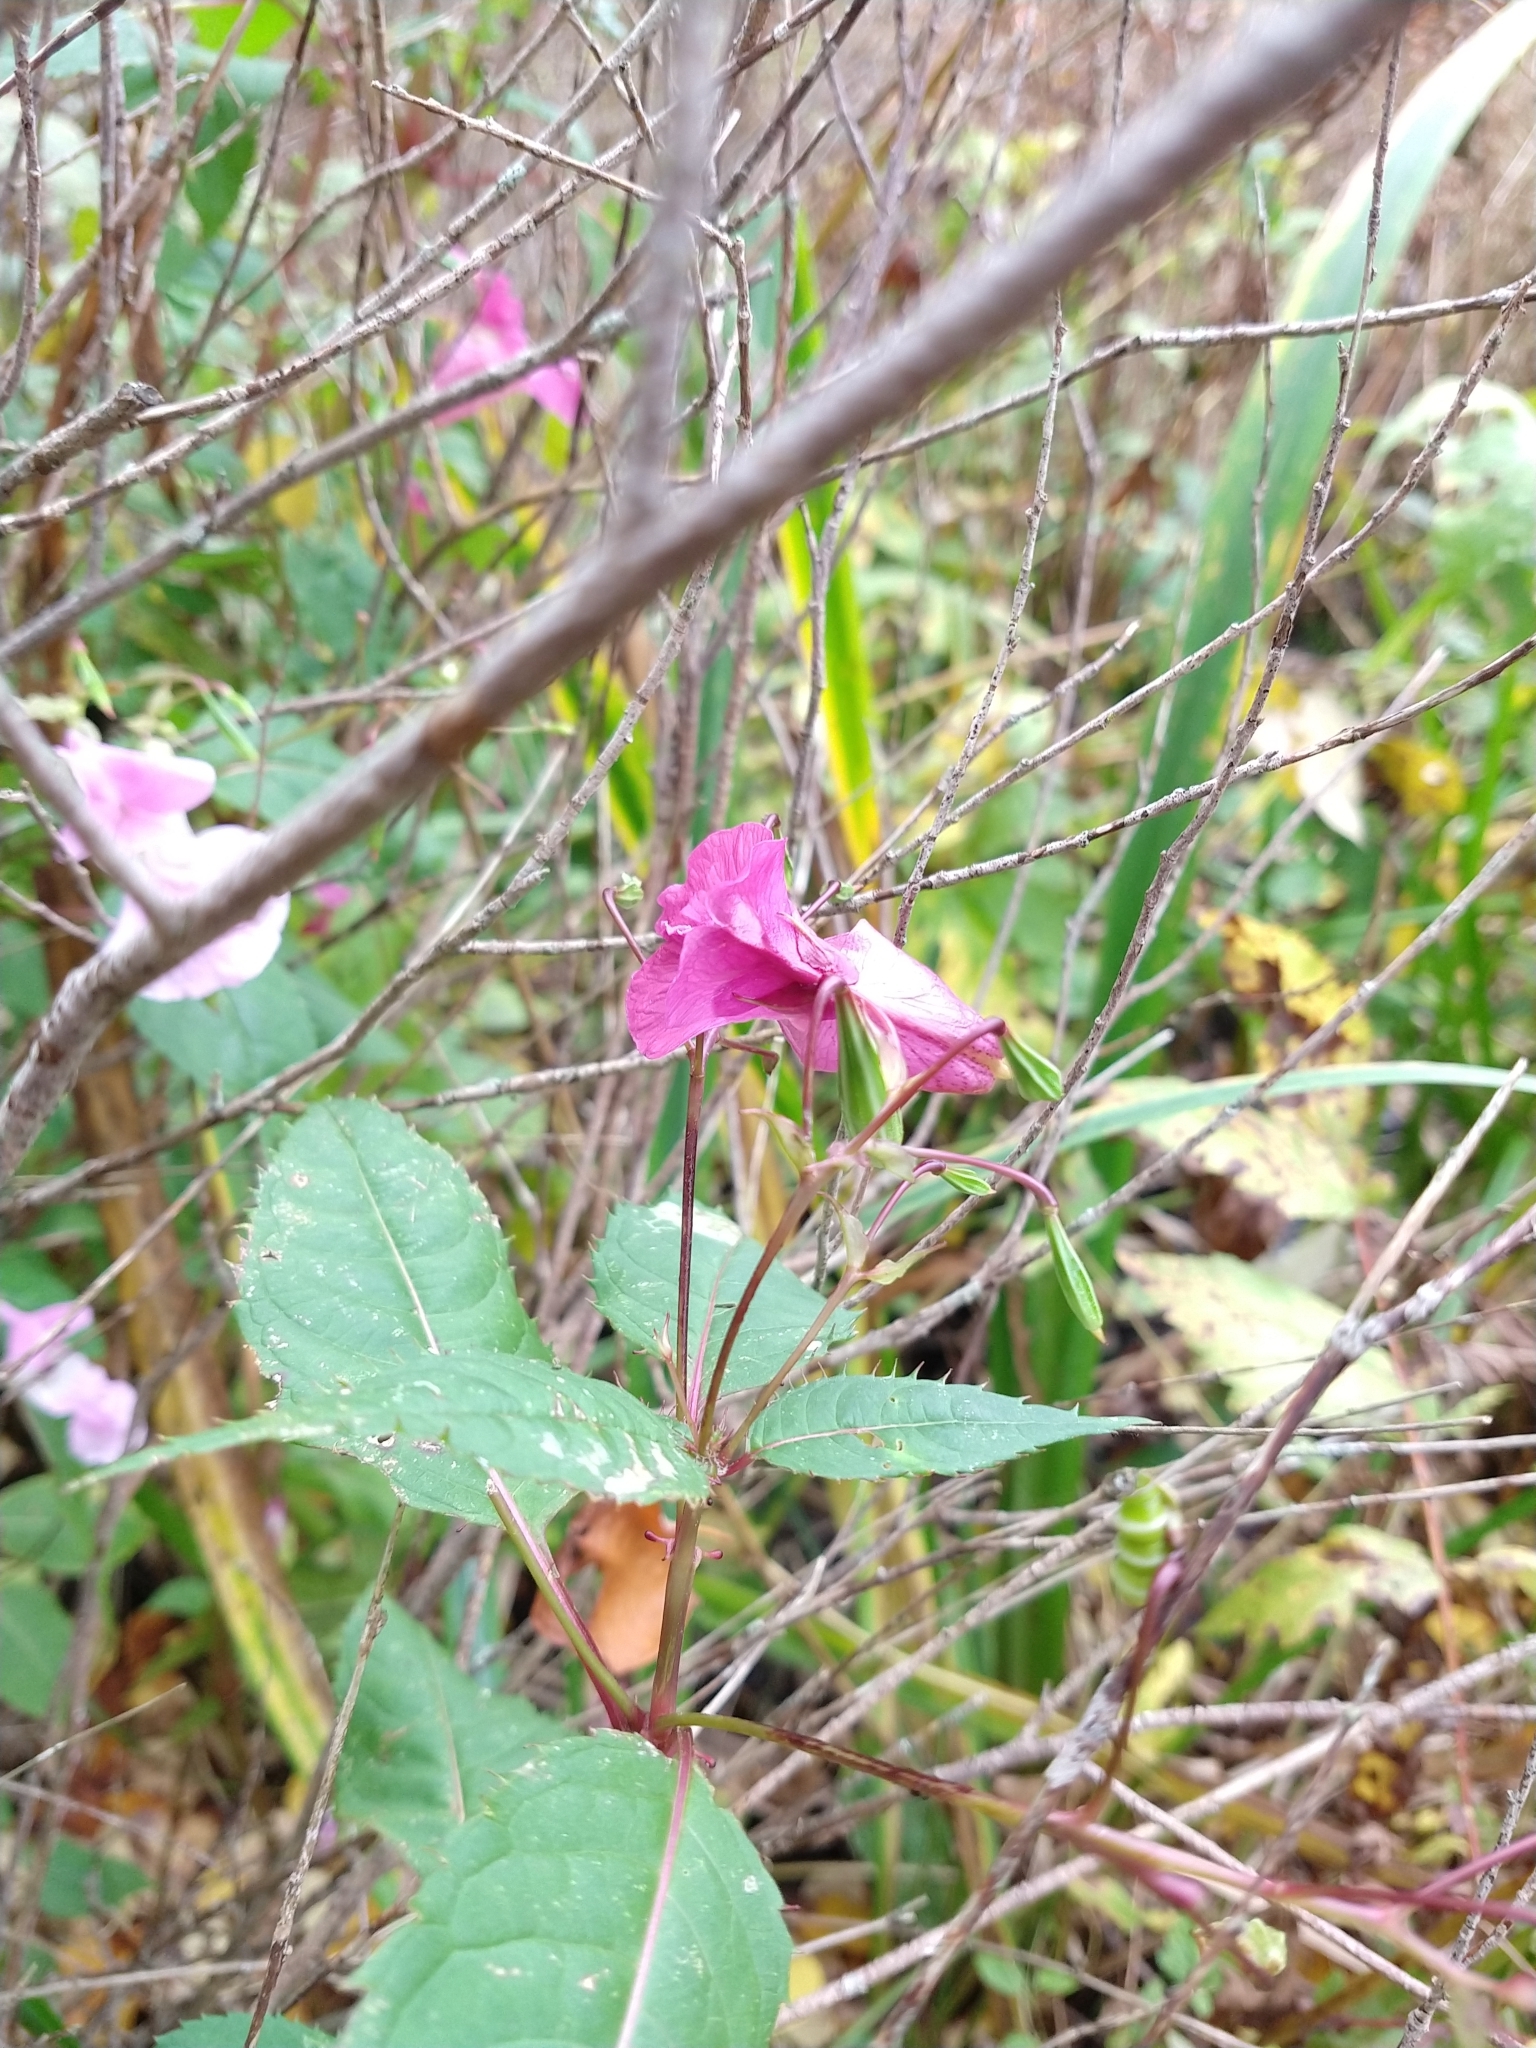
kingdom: Plantae
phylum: Tracheophyta
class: Magnoliopsida
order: Ericales
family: Balsaminaceae
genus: Impatiens
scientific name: Impatiens glandulifera
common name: Himalayan balsam
